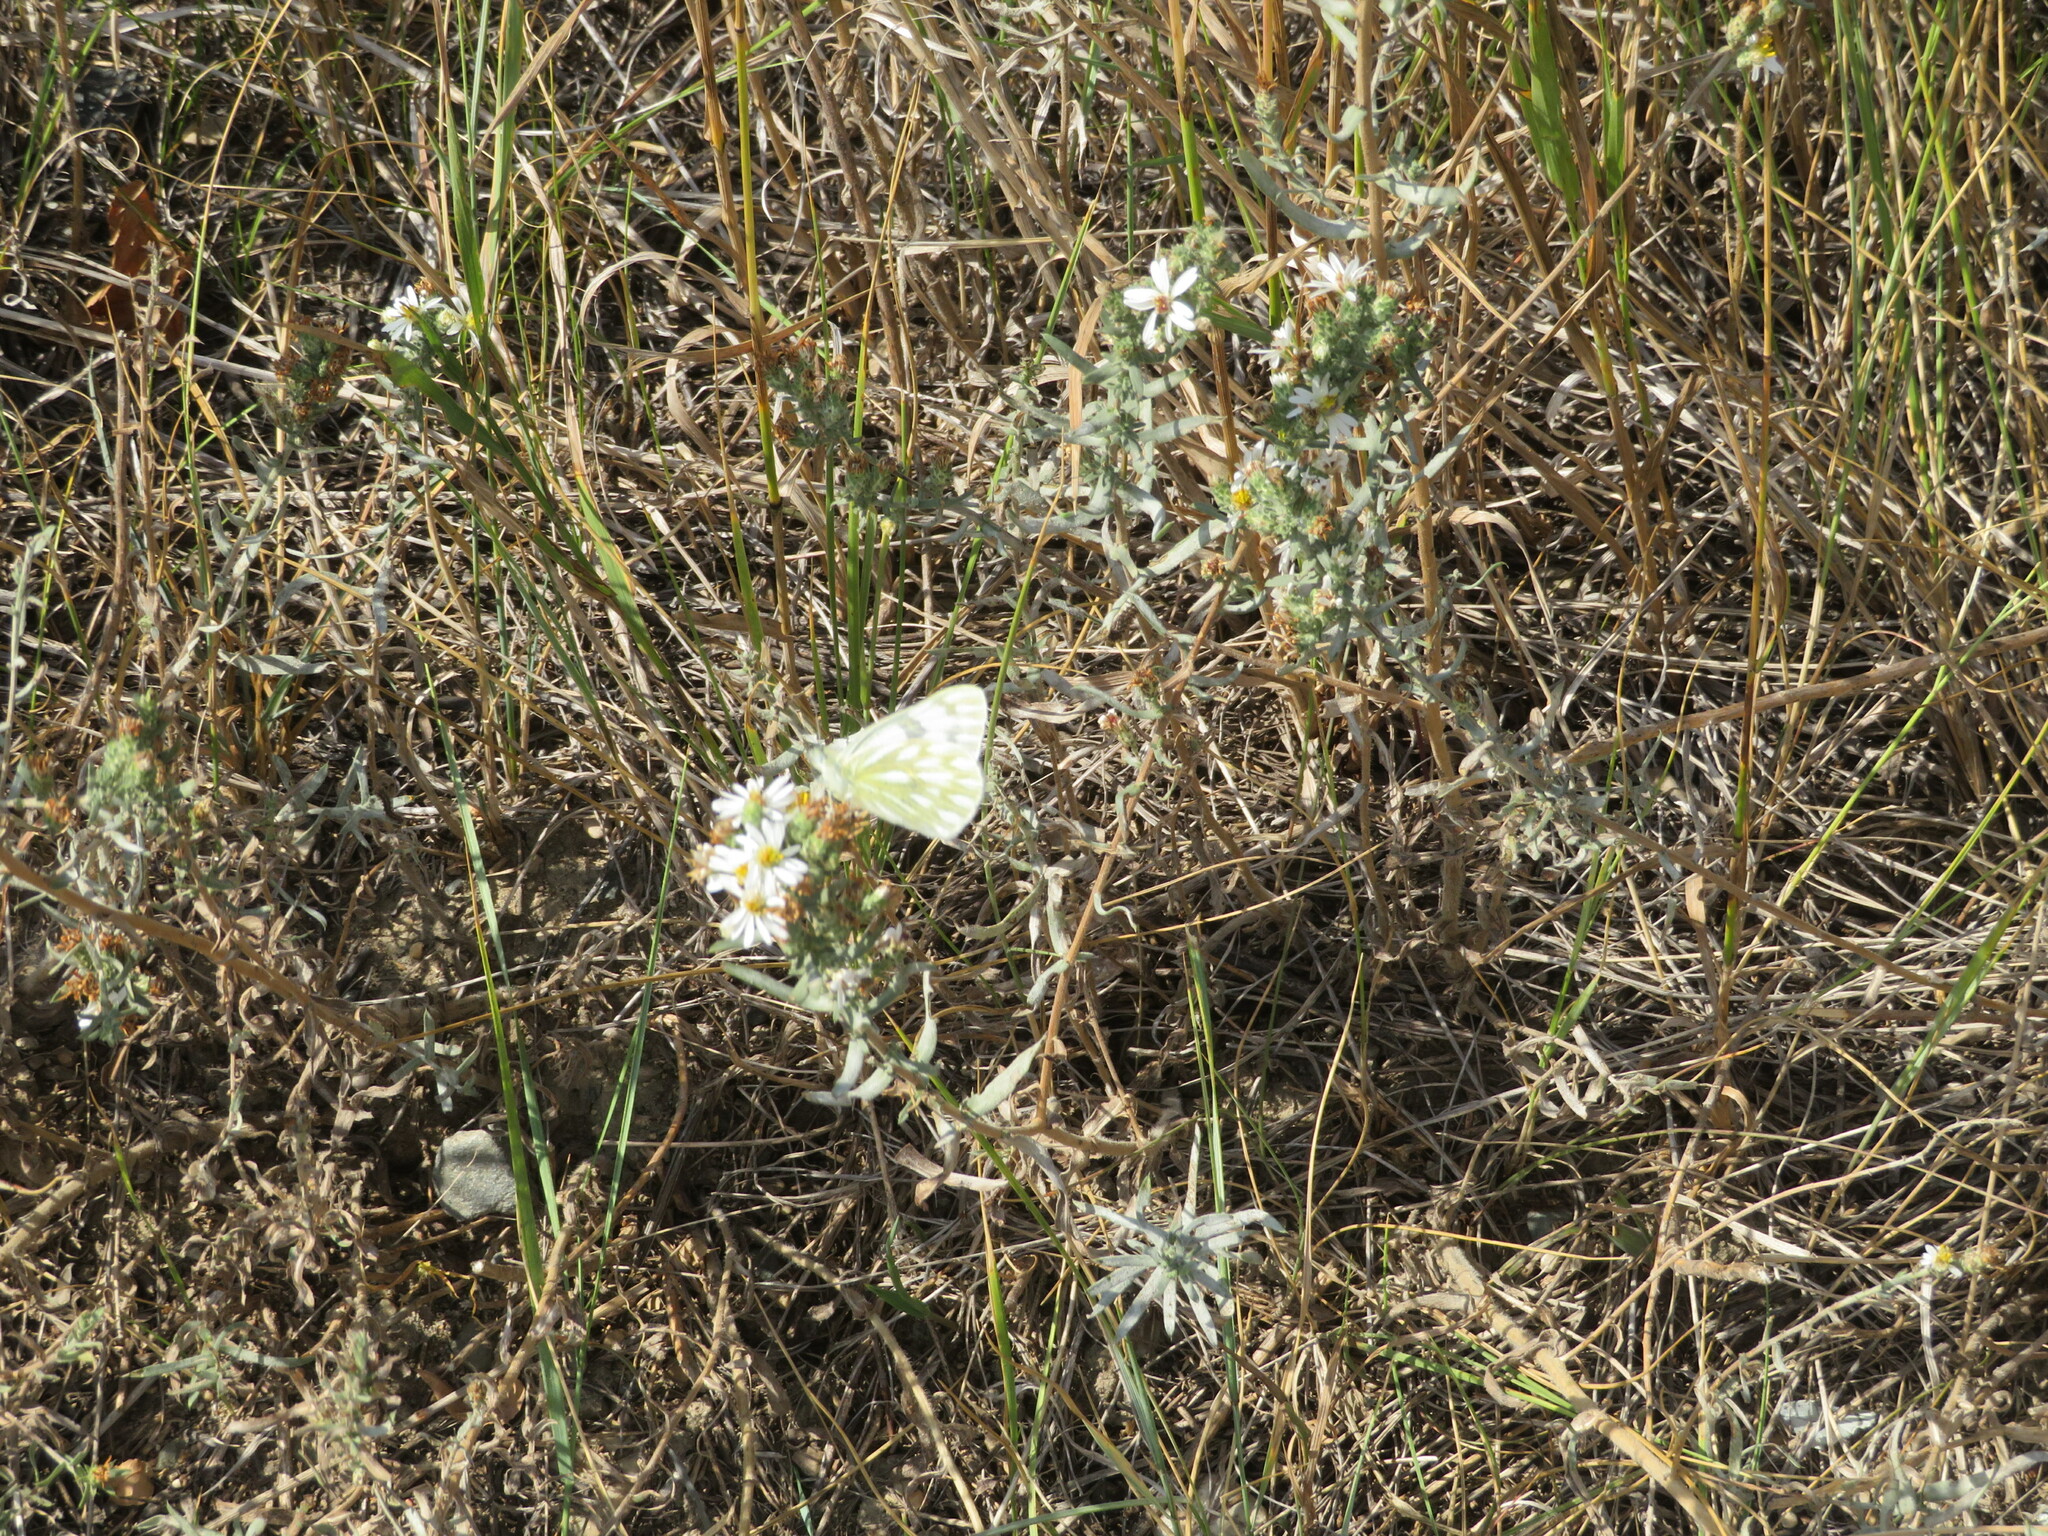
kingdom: Animalia
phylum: Arthropoda
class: Insecta
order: Lepidoptera
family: Pieridae
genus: Pontia
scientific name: Pontia occidentalis
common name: Western white
